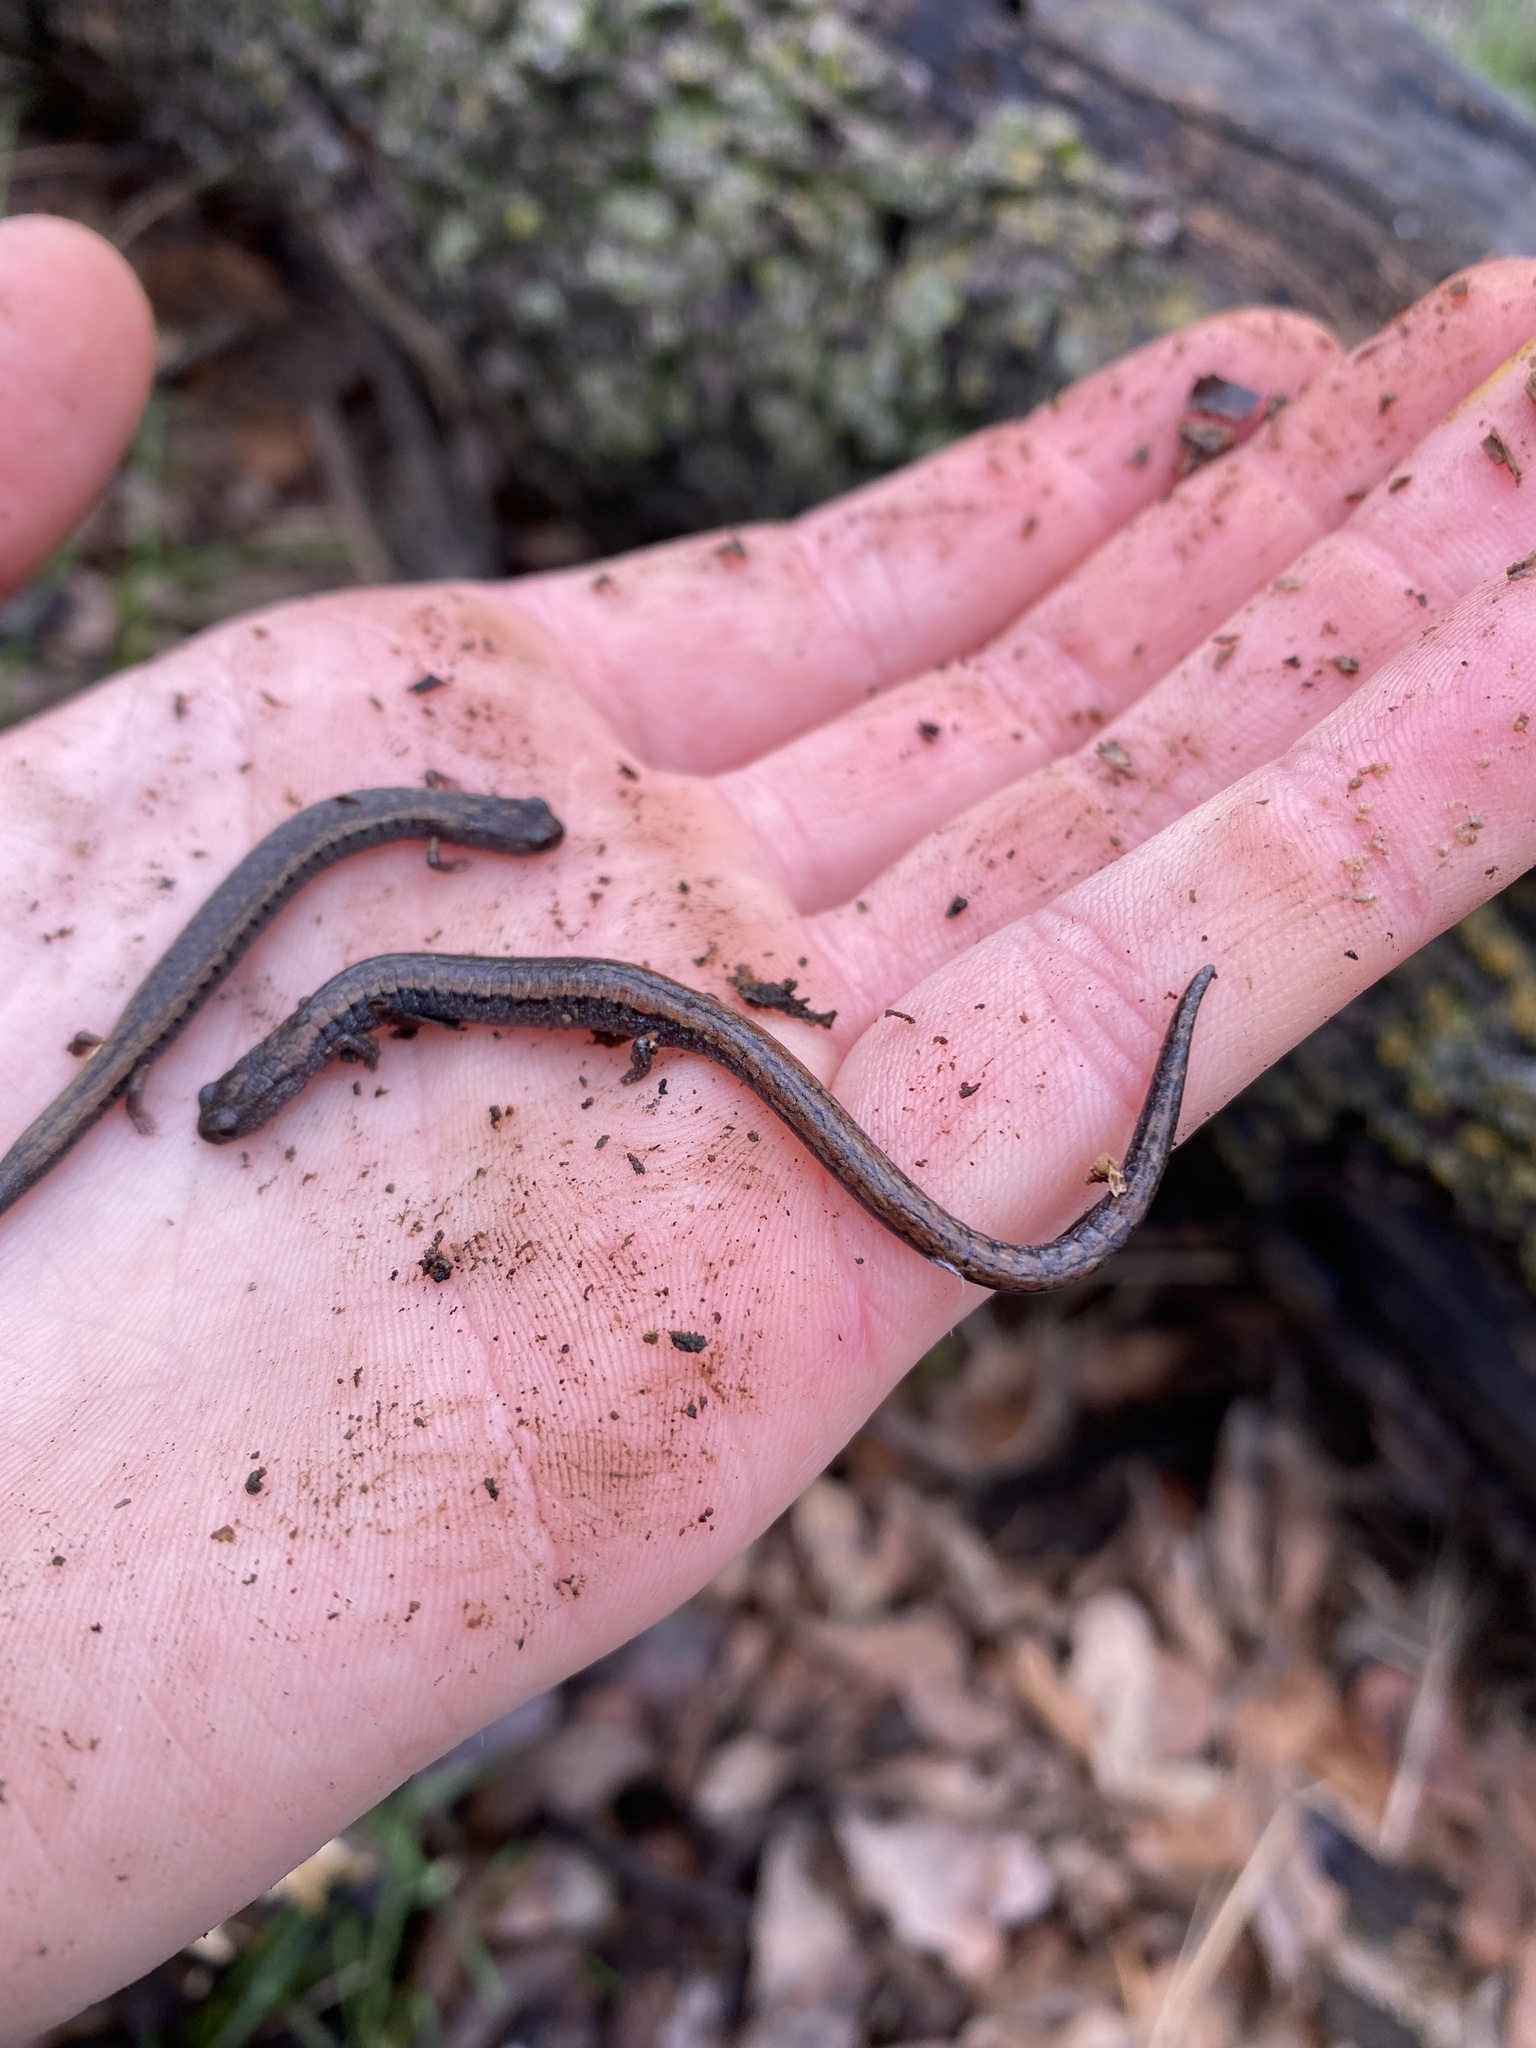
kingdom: Animalia
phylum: Chordata
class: Amphibia
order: Caudata
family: Plethodontidae
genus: Batrachoseps
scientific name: Batrachoseps attenuatus
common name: California slender salamander
